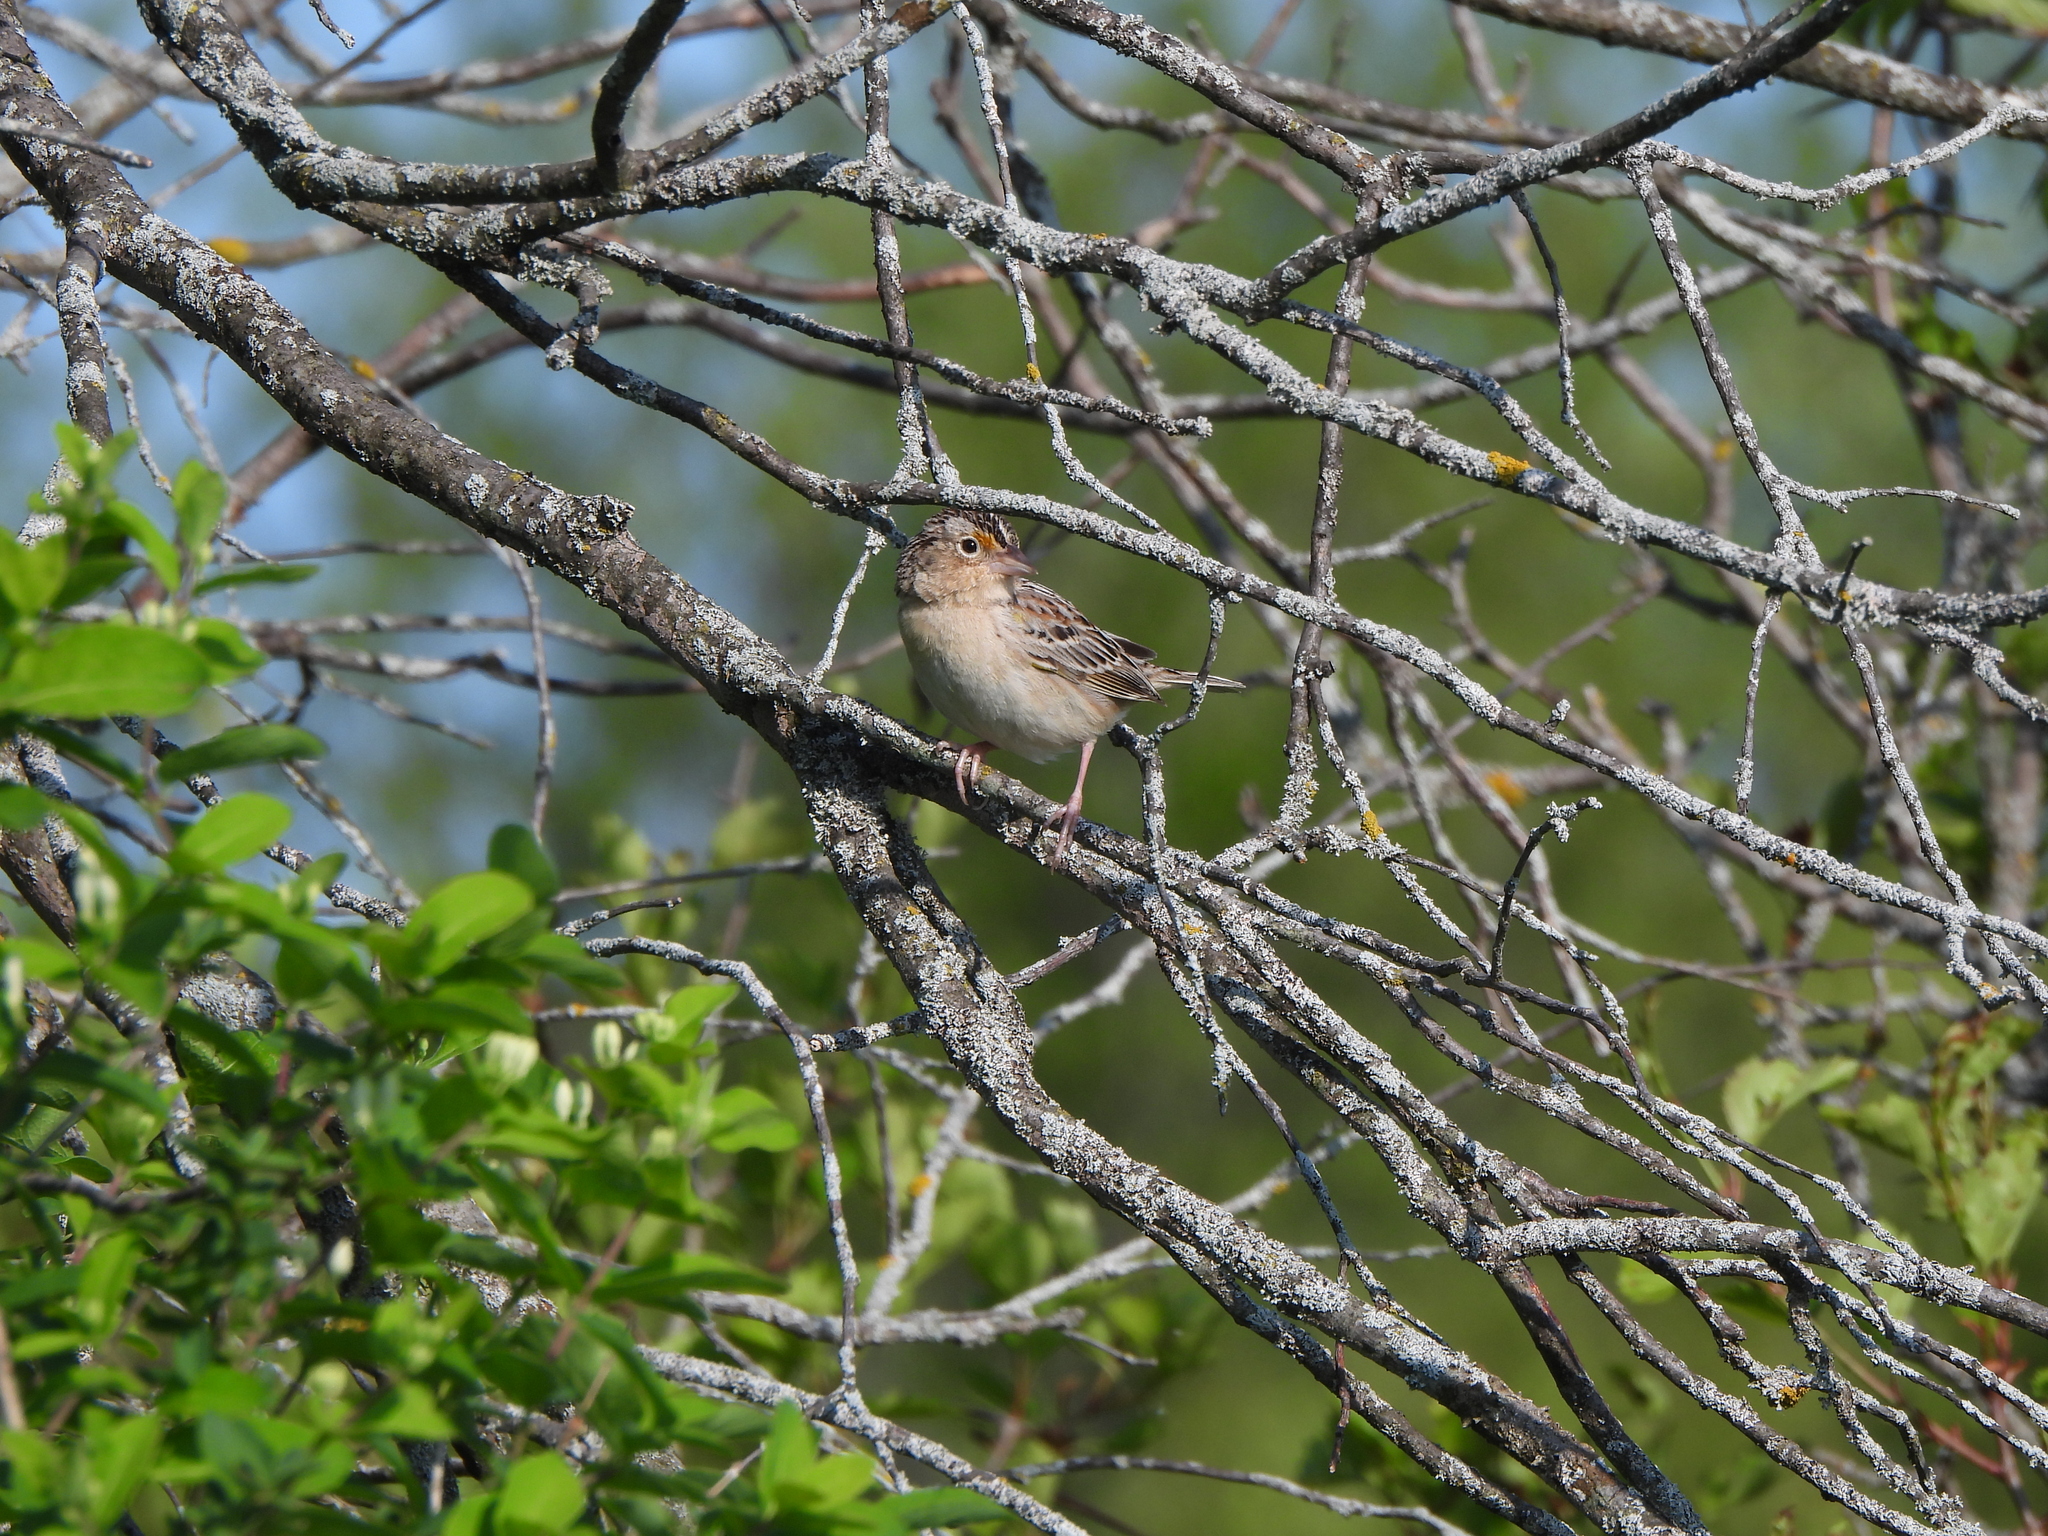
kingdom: Animalia
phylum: Chordata
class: Aves
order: Passeriformes
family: Passerellidae
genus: Ammodramus
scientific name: Ammodramus savannarum
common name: Grasshopper sparrow
